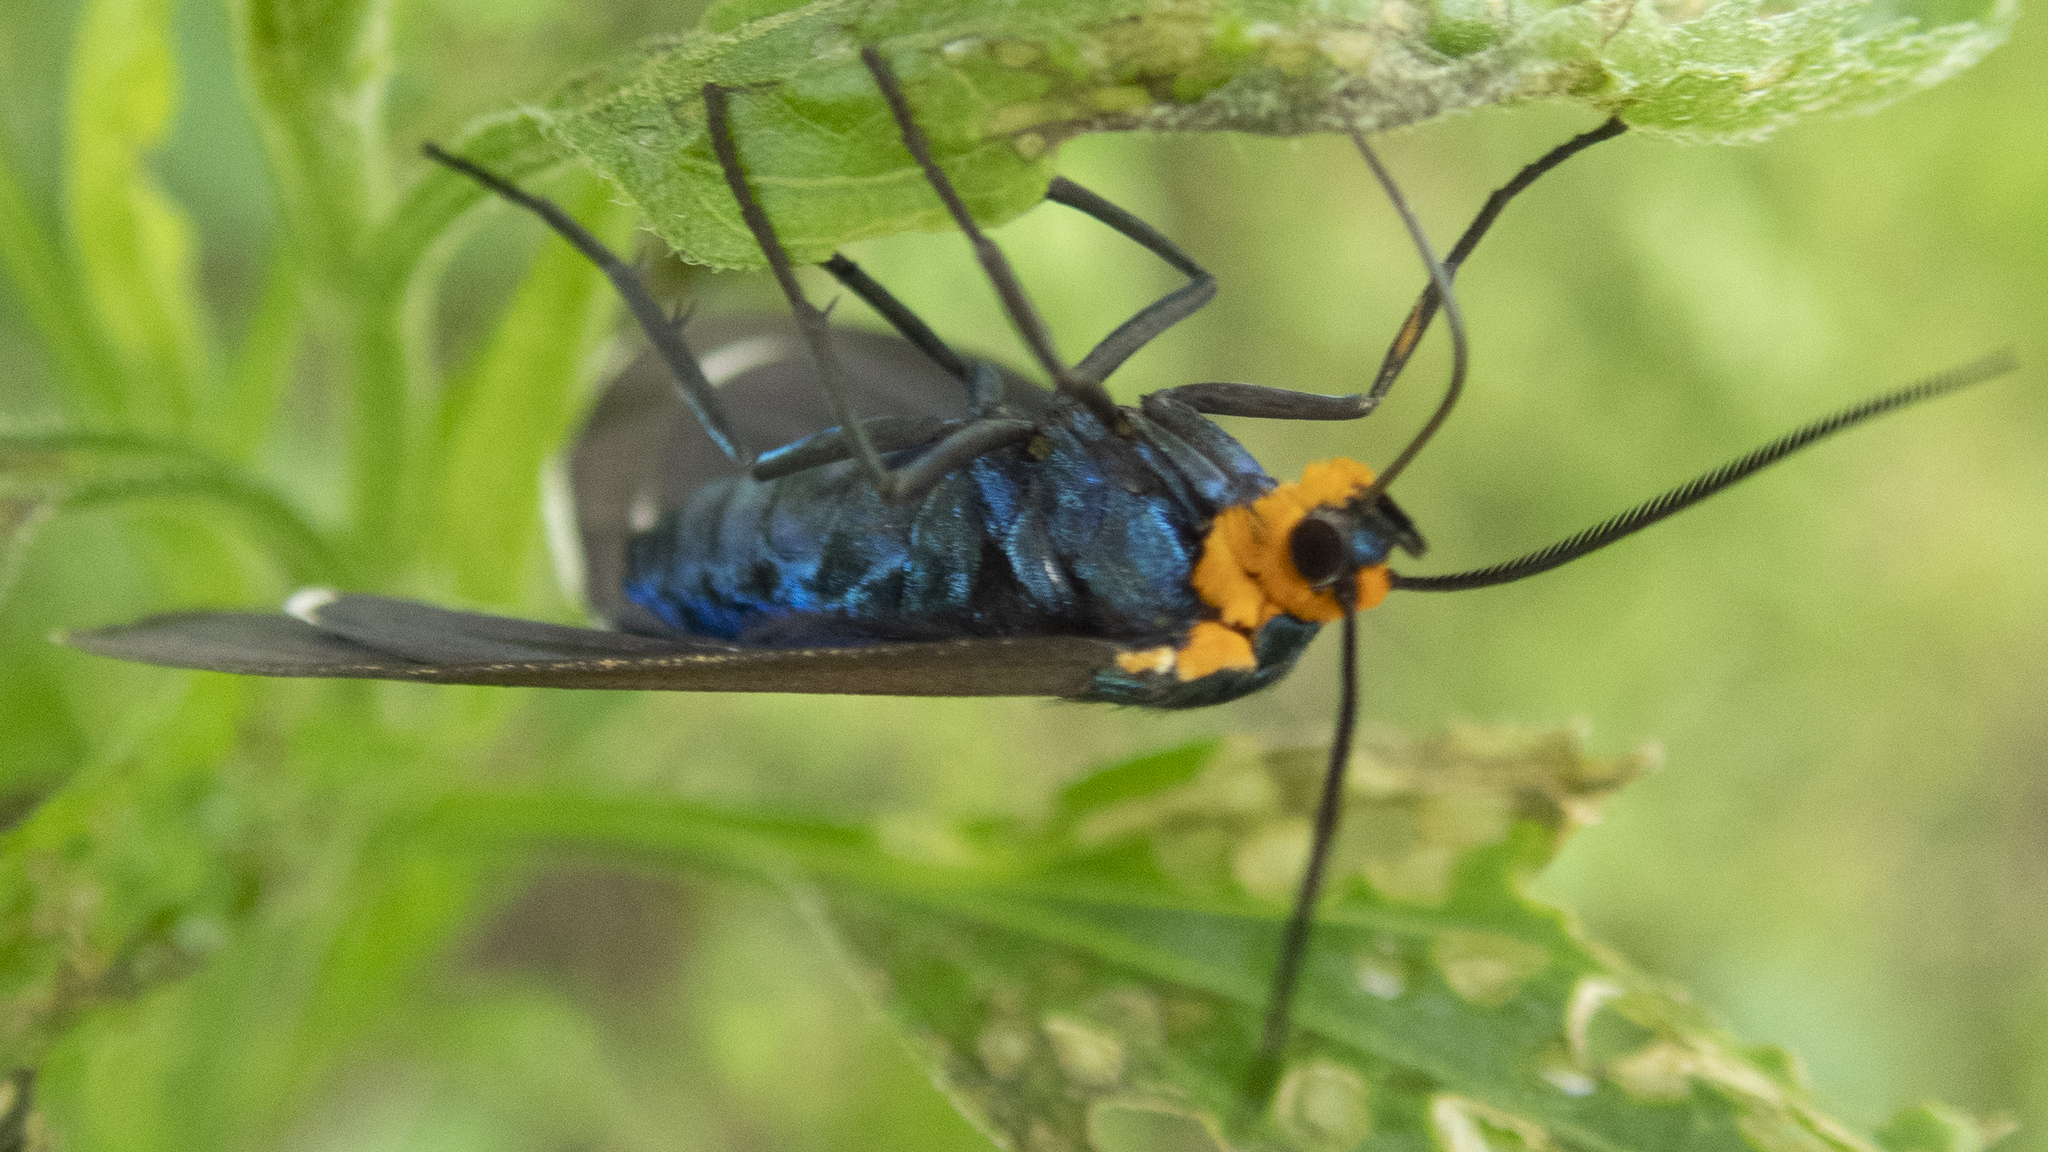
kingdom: Animalia
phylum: Arthropoda
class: Insecta
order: Lepidoptera
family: Erebidae
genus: Ctenucha
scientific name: Ctenucha virginica
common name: Virginia ctenucha moth
